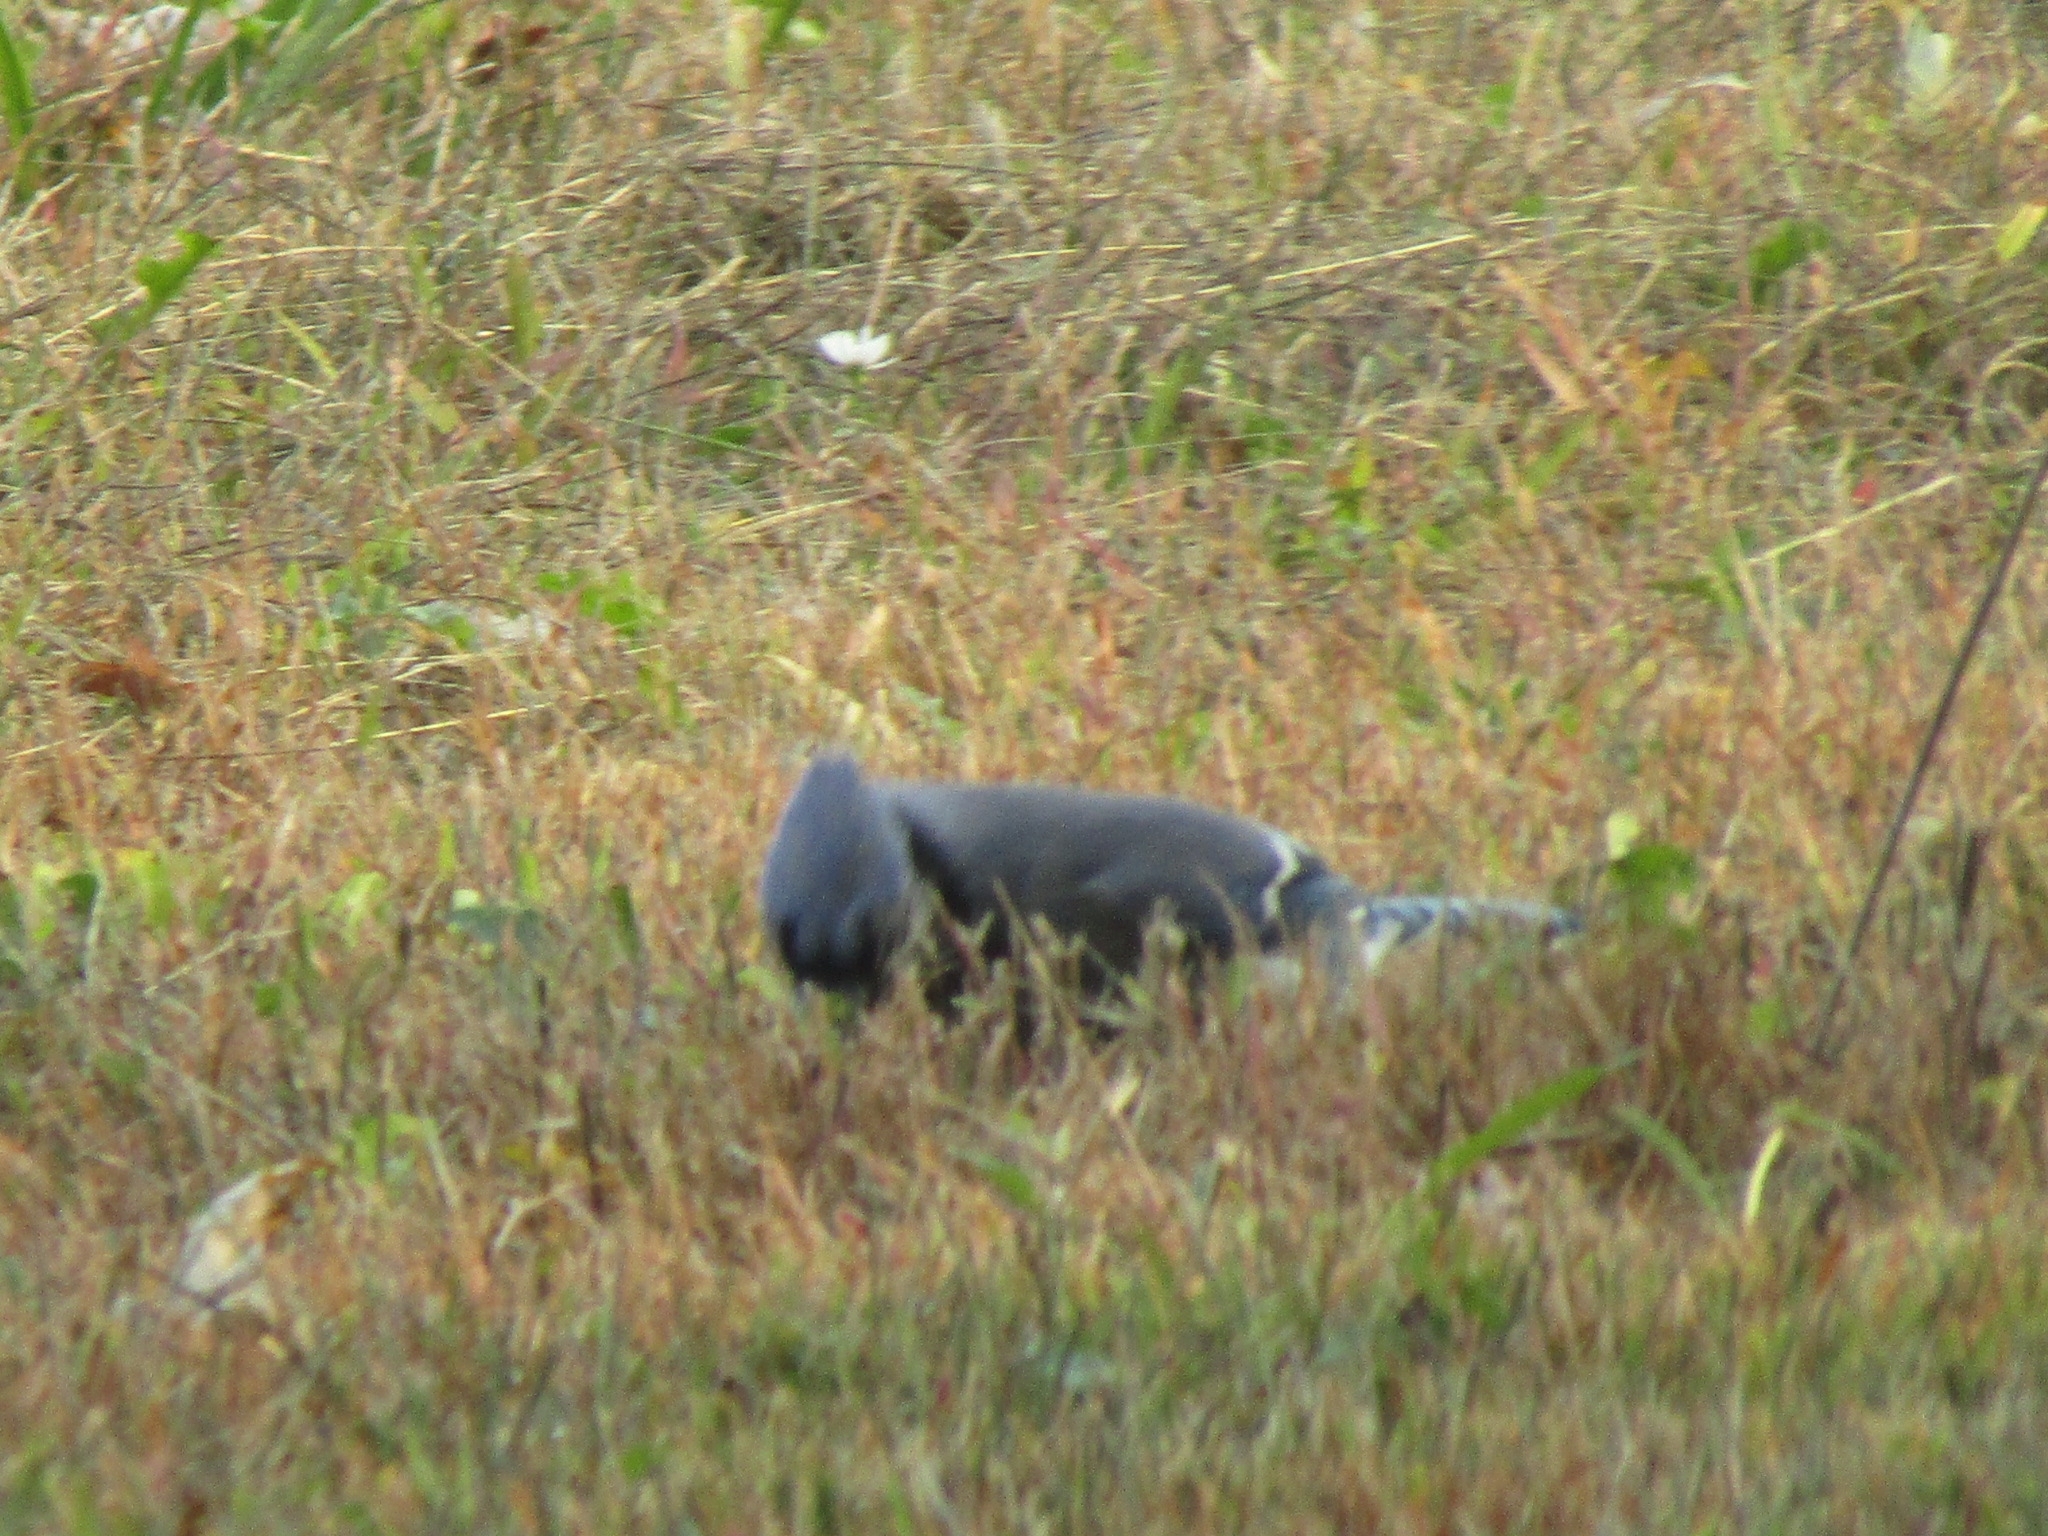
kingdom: Animalia
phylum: Chordata
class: Aves
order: Passeriformes
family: Corvidae
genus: Cyanocitta
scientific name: Cyanocitta cristata
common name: Blue jay
